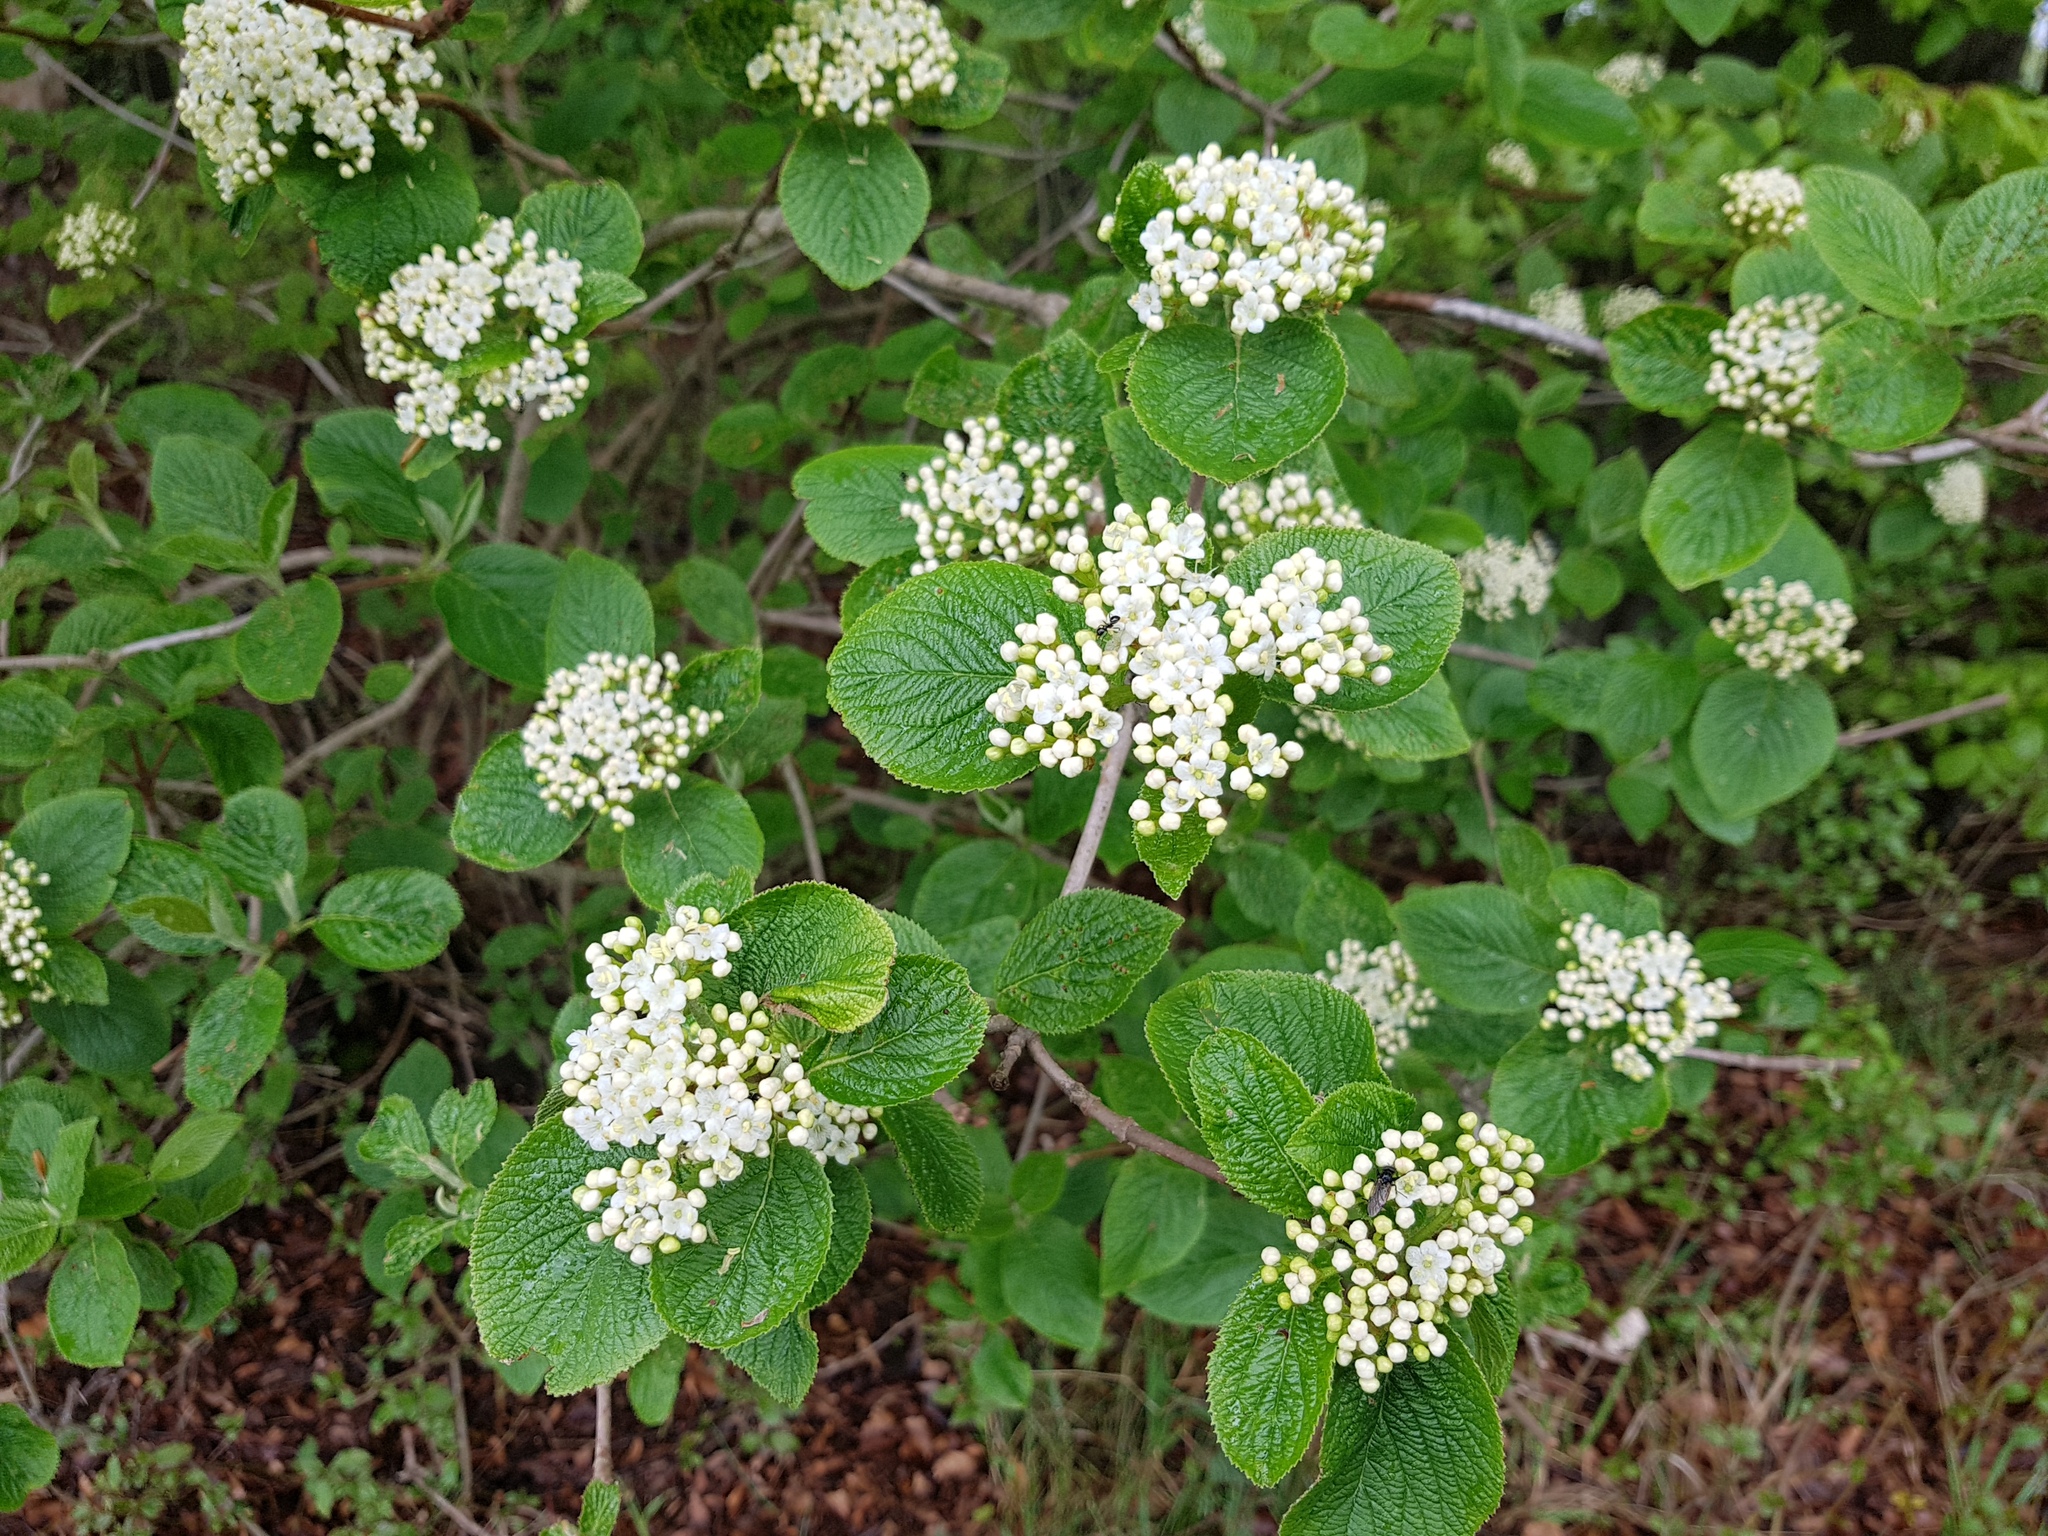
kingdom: Plantae
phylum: Tracheophyta
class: Magnoliopsida
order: Dipsacales
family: Viburnaceae
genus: Viburnum
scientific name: Viburnum lantana
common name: Wayfaring tree
